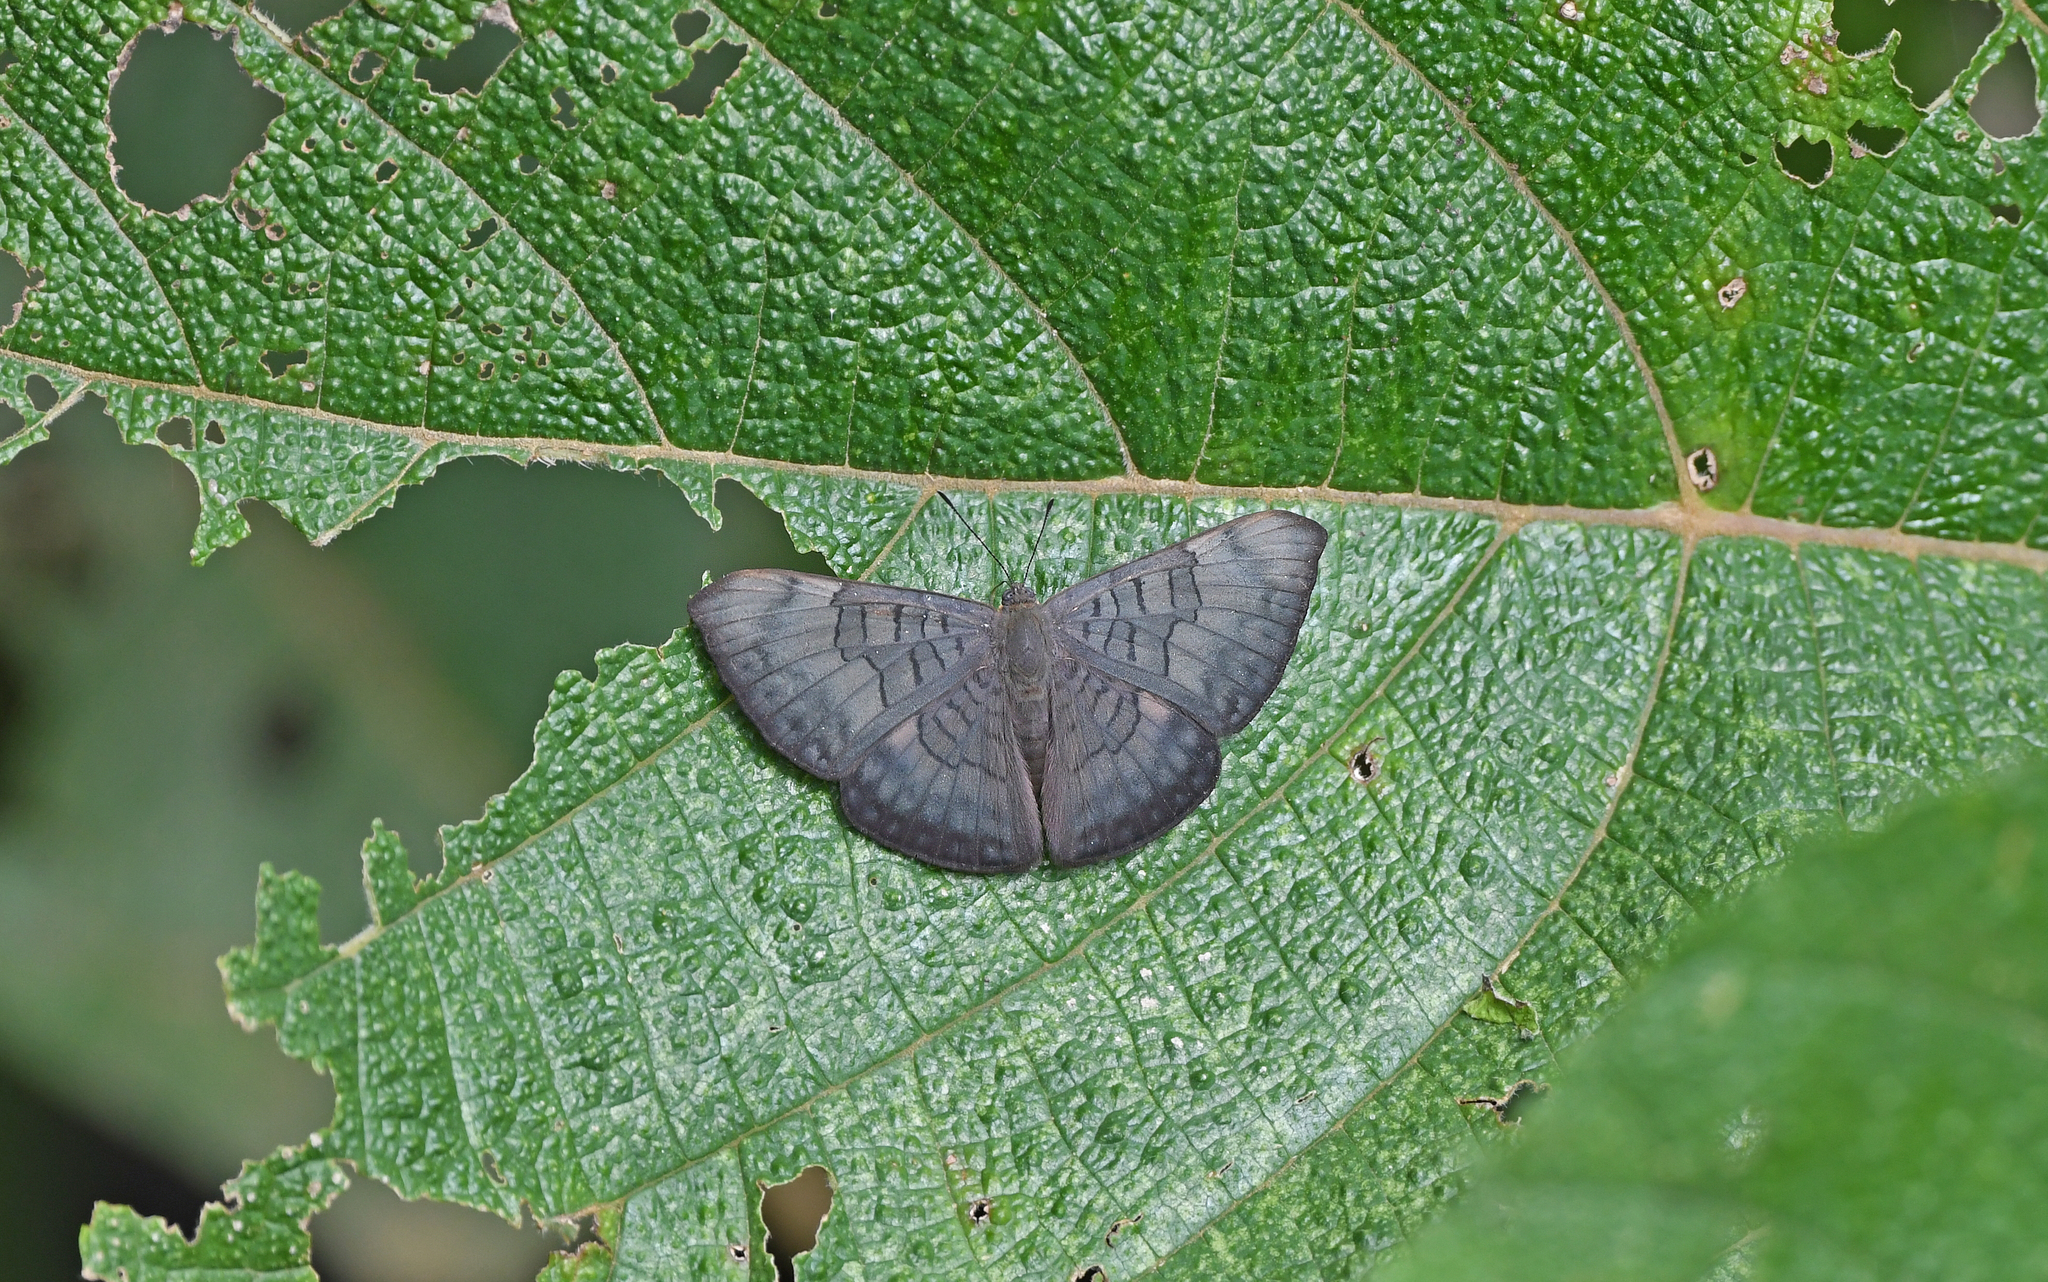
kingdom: Animalia
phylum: Arthropoda
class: Insecta
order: Lepidoptera
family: Lycaenidae
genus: Emesis
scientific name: Emesis lucinda
